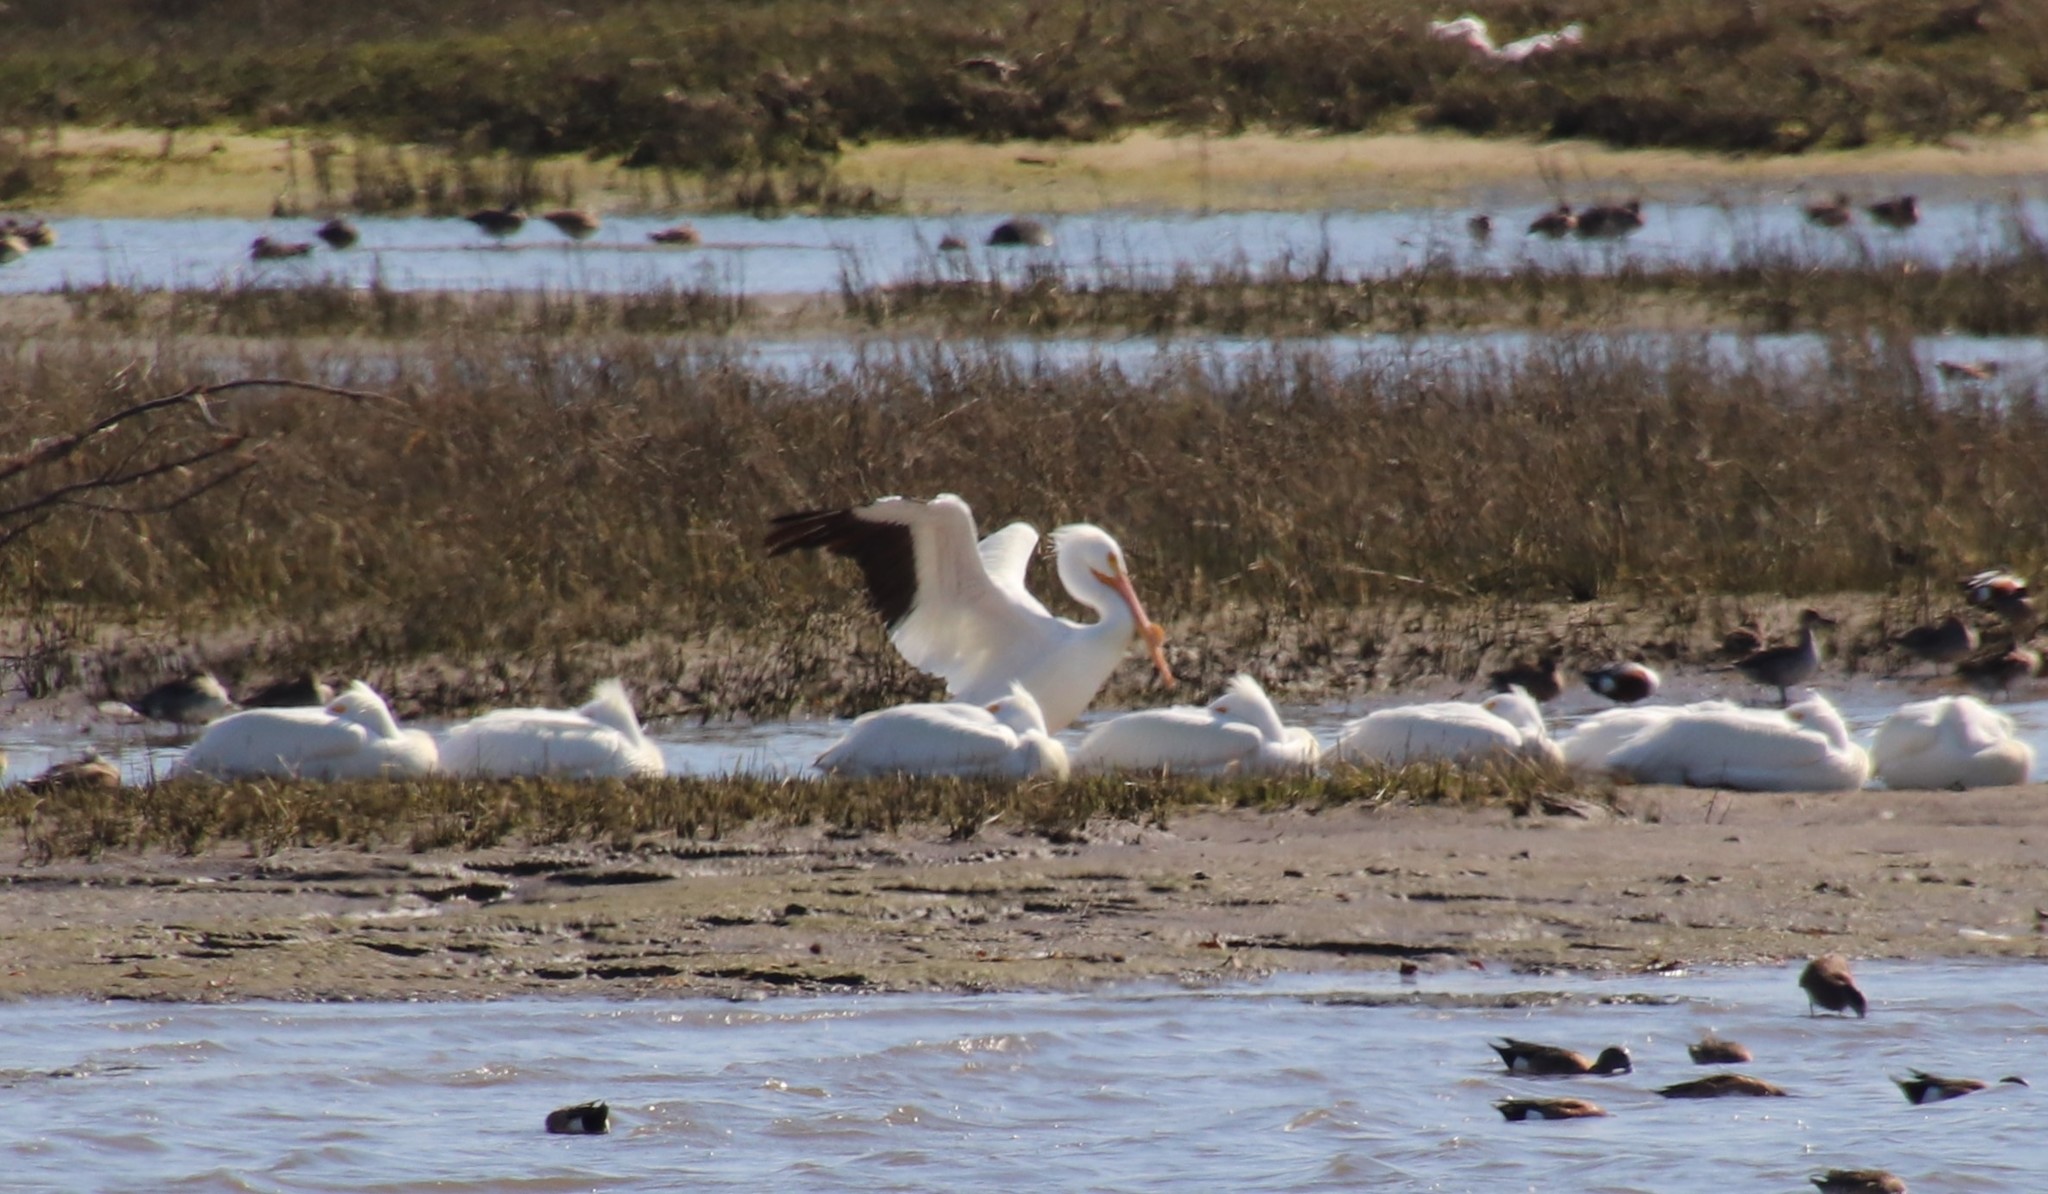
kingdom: Animalia
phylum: Chordata
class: Aves
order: Pelecaniformes
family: Pelecanidae
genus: Pelecanus
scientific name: Pelecanus erythrorhynchos
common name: American white pelican
